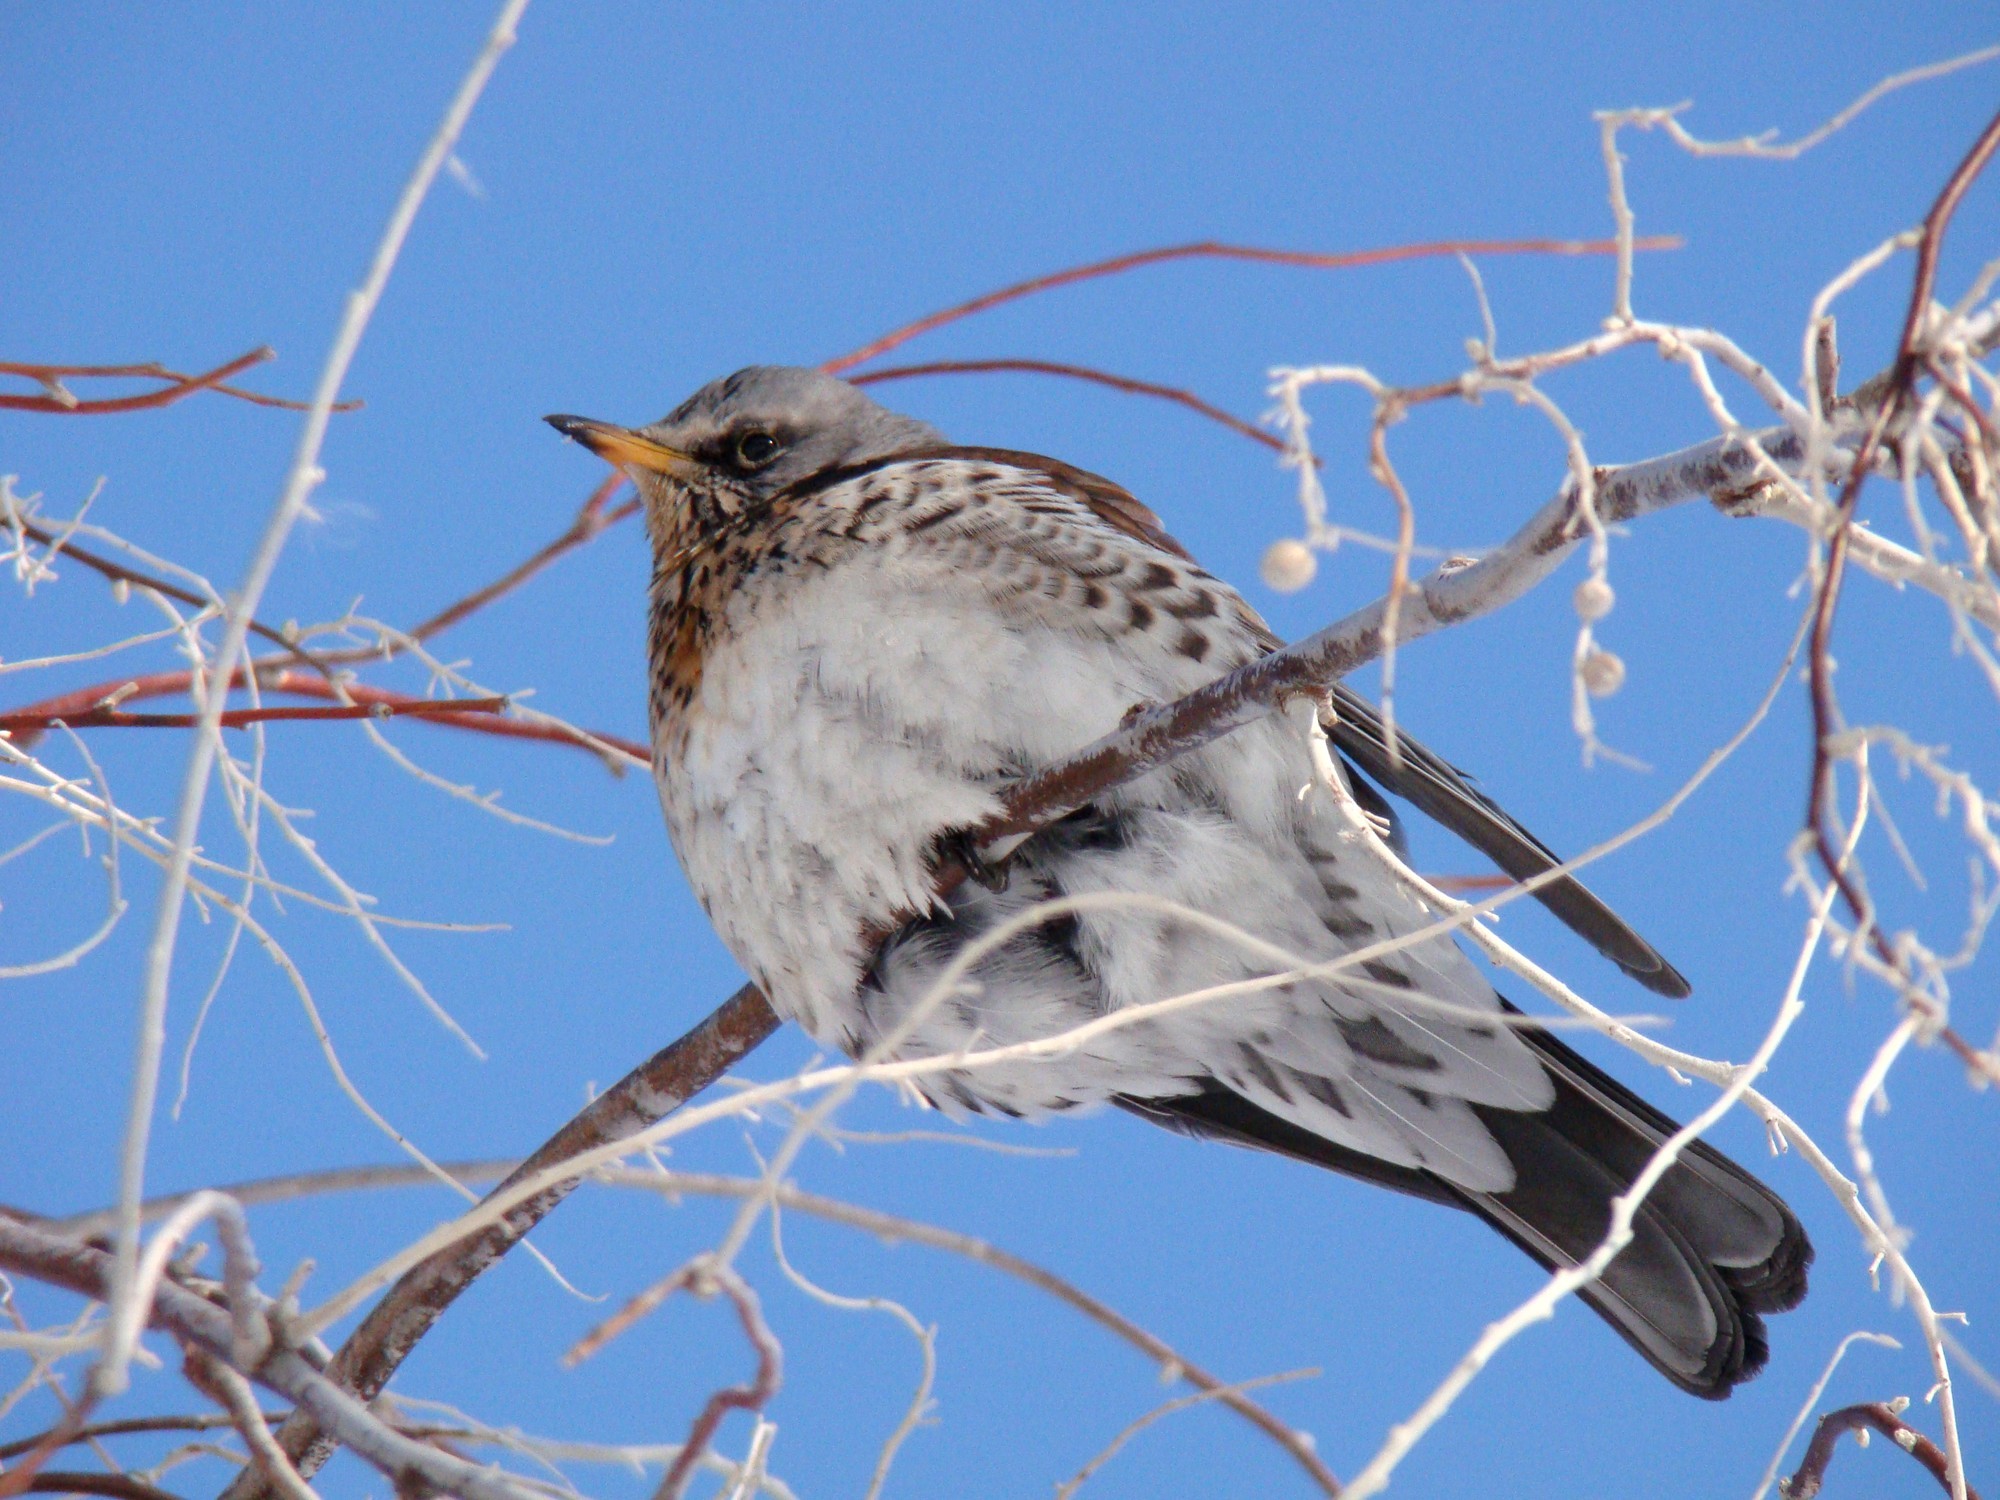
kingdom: Animalia
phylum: Chordata
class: Aves
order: Passeriformes
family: Turdidae
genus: Turdus
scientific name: Turdus pilaris
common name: Fieldfare
